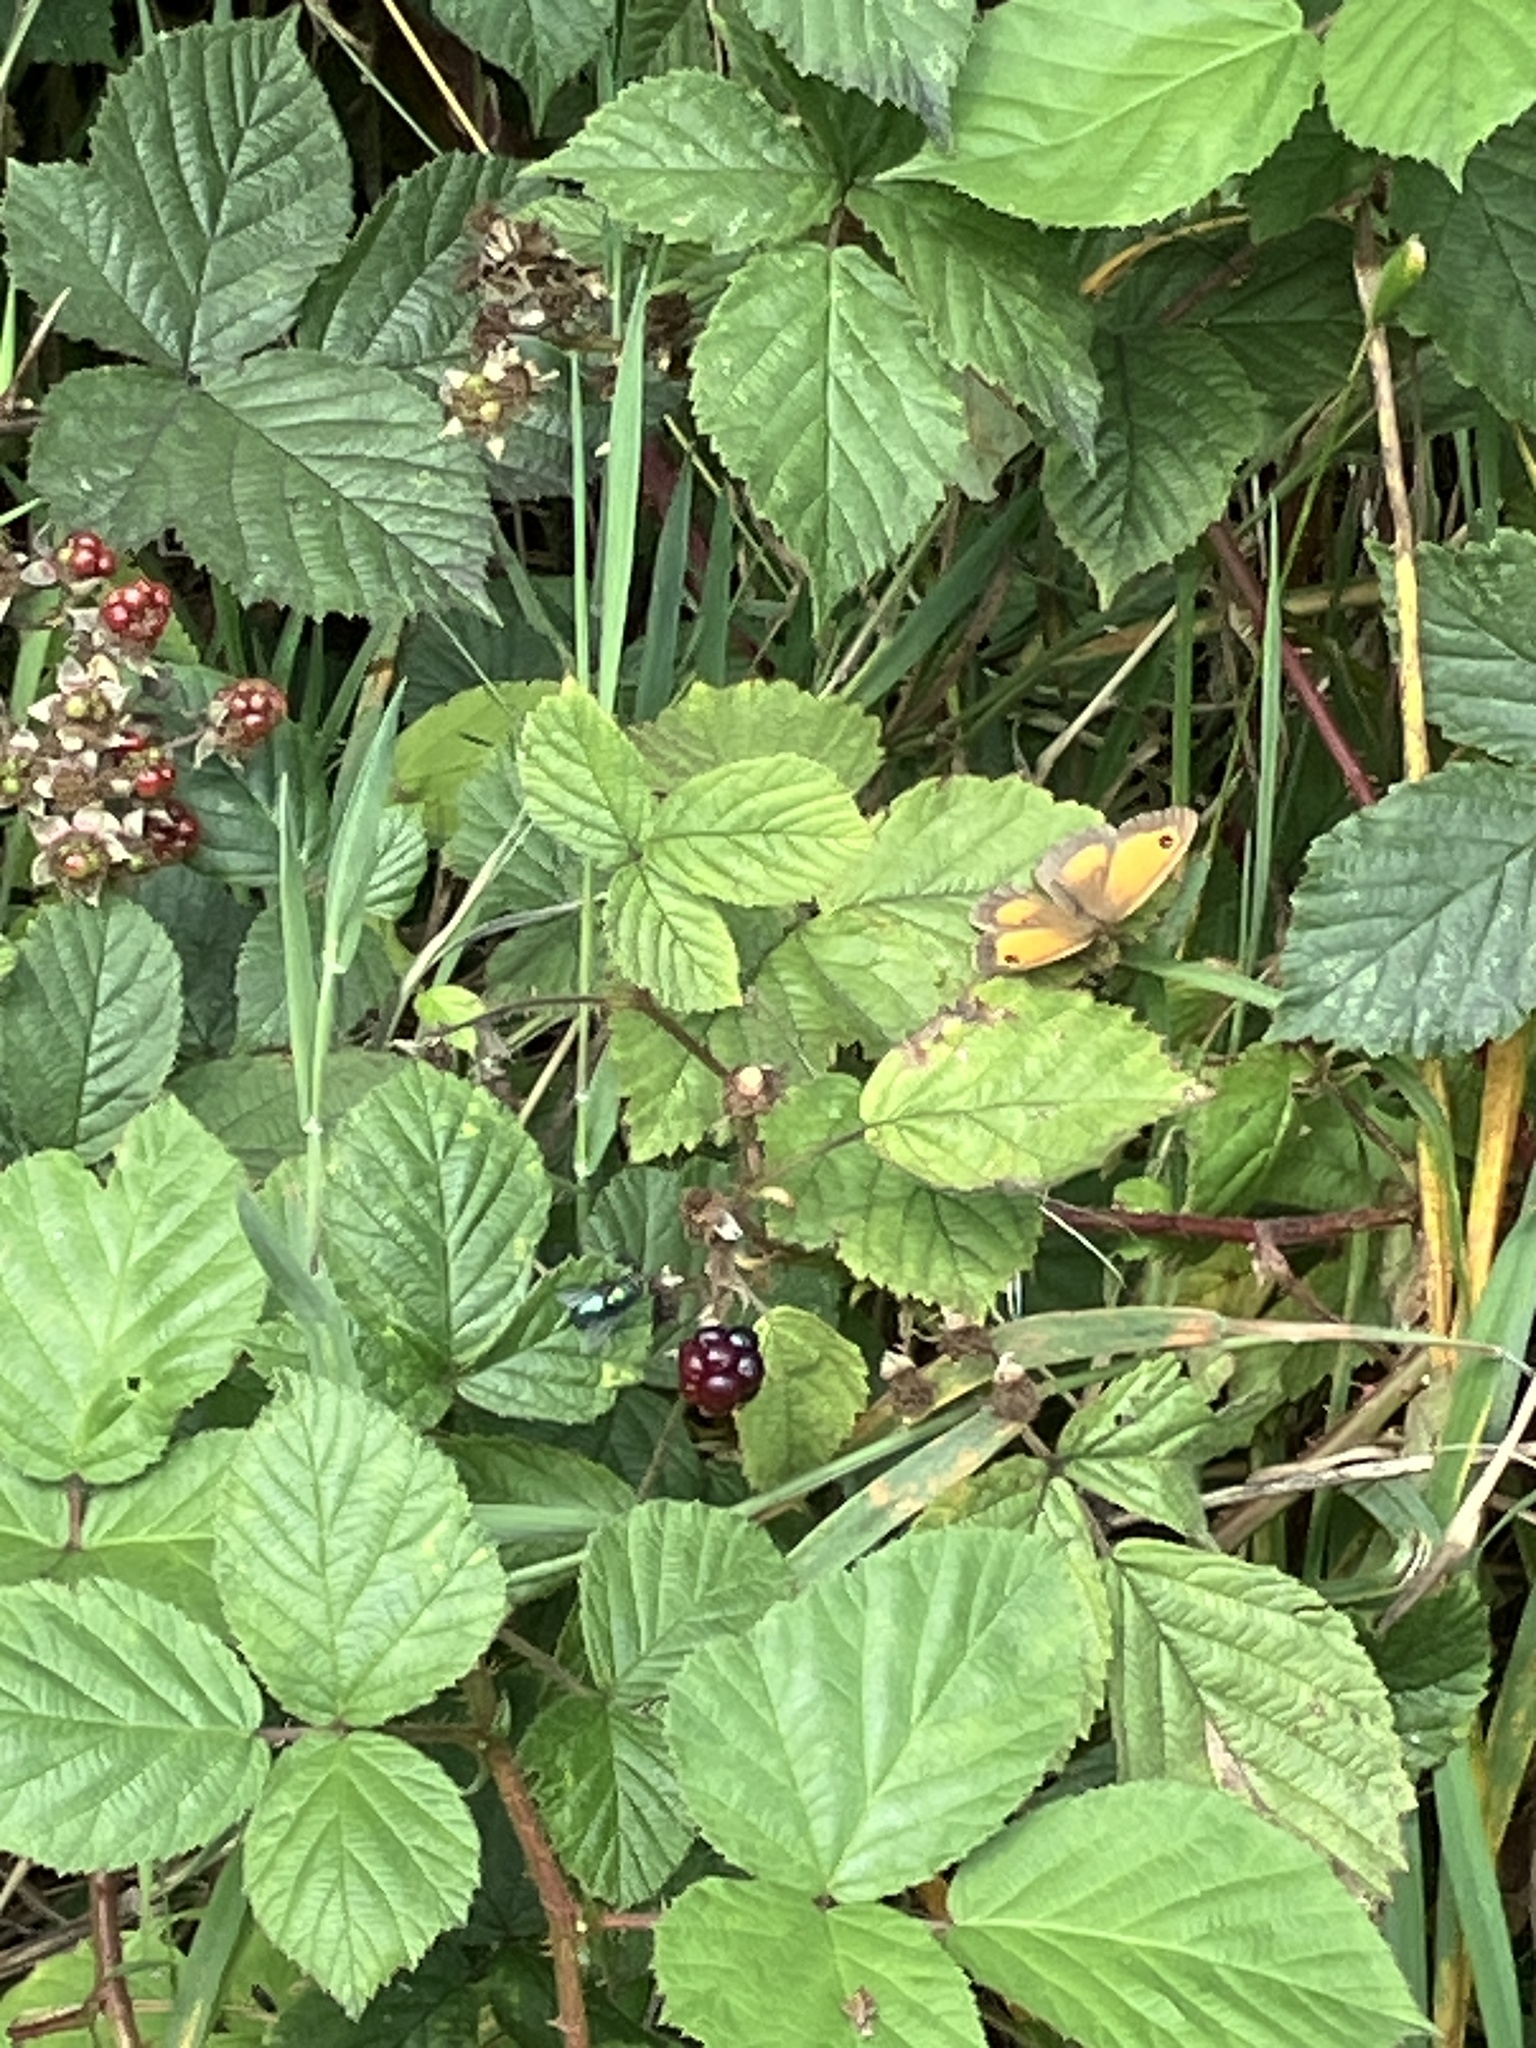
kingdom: Animalia
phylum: Arthropoda
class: Insecta
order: Lepidoptera
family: Nymphalidae
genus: Pyronia
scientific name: Pyronia tithonus
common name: Gatekeeper
